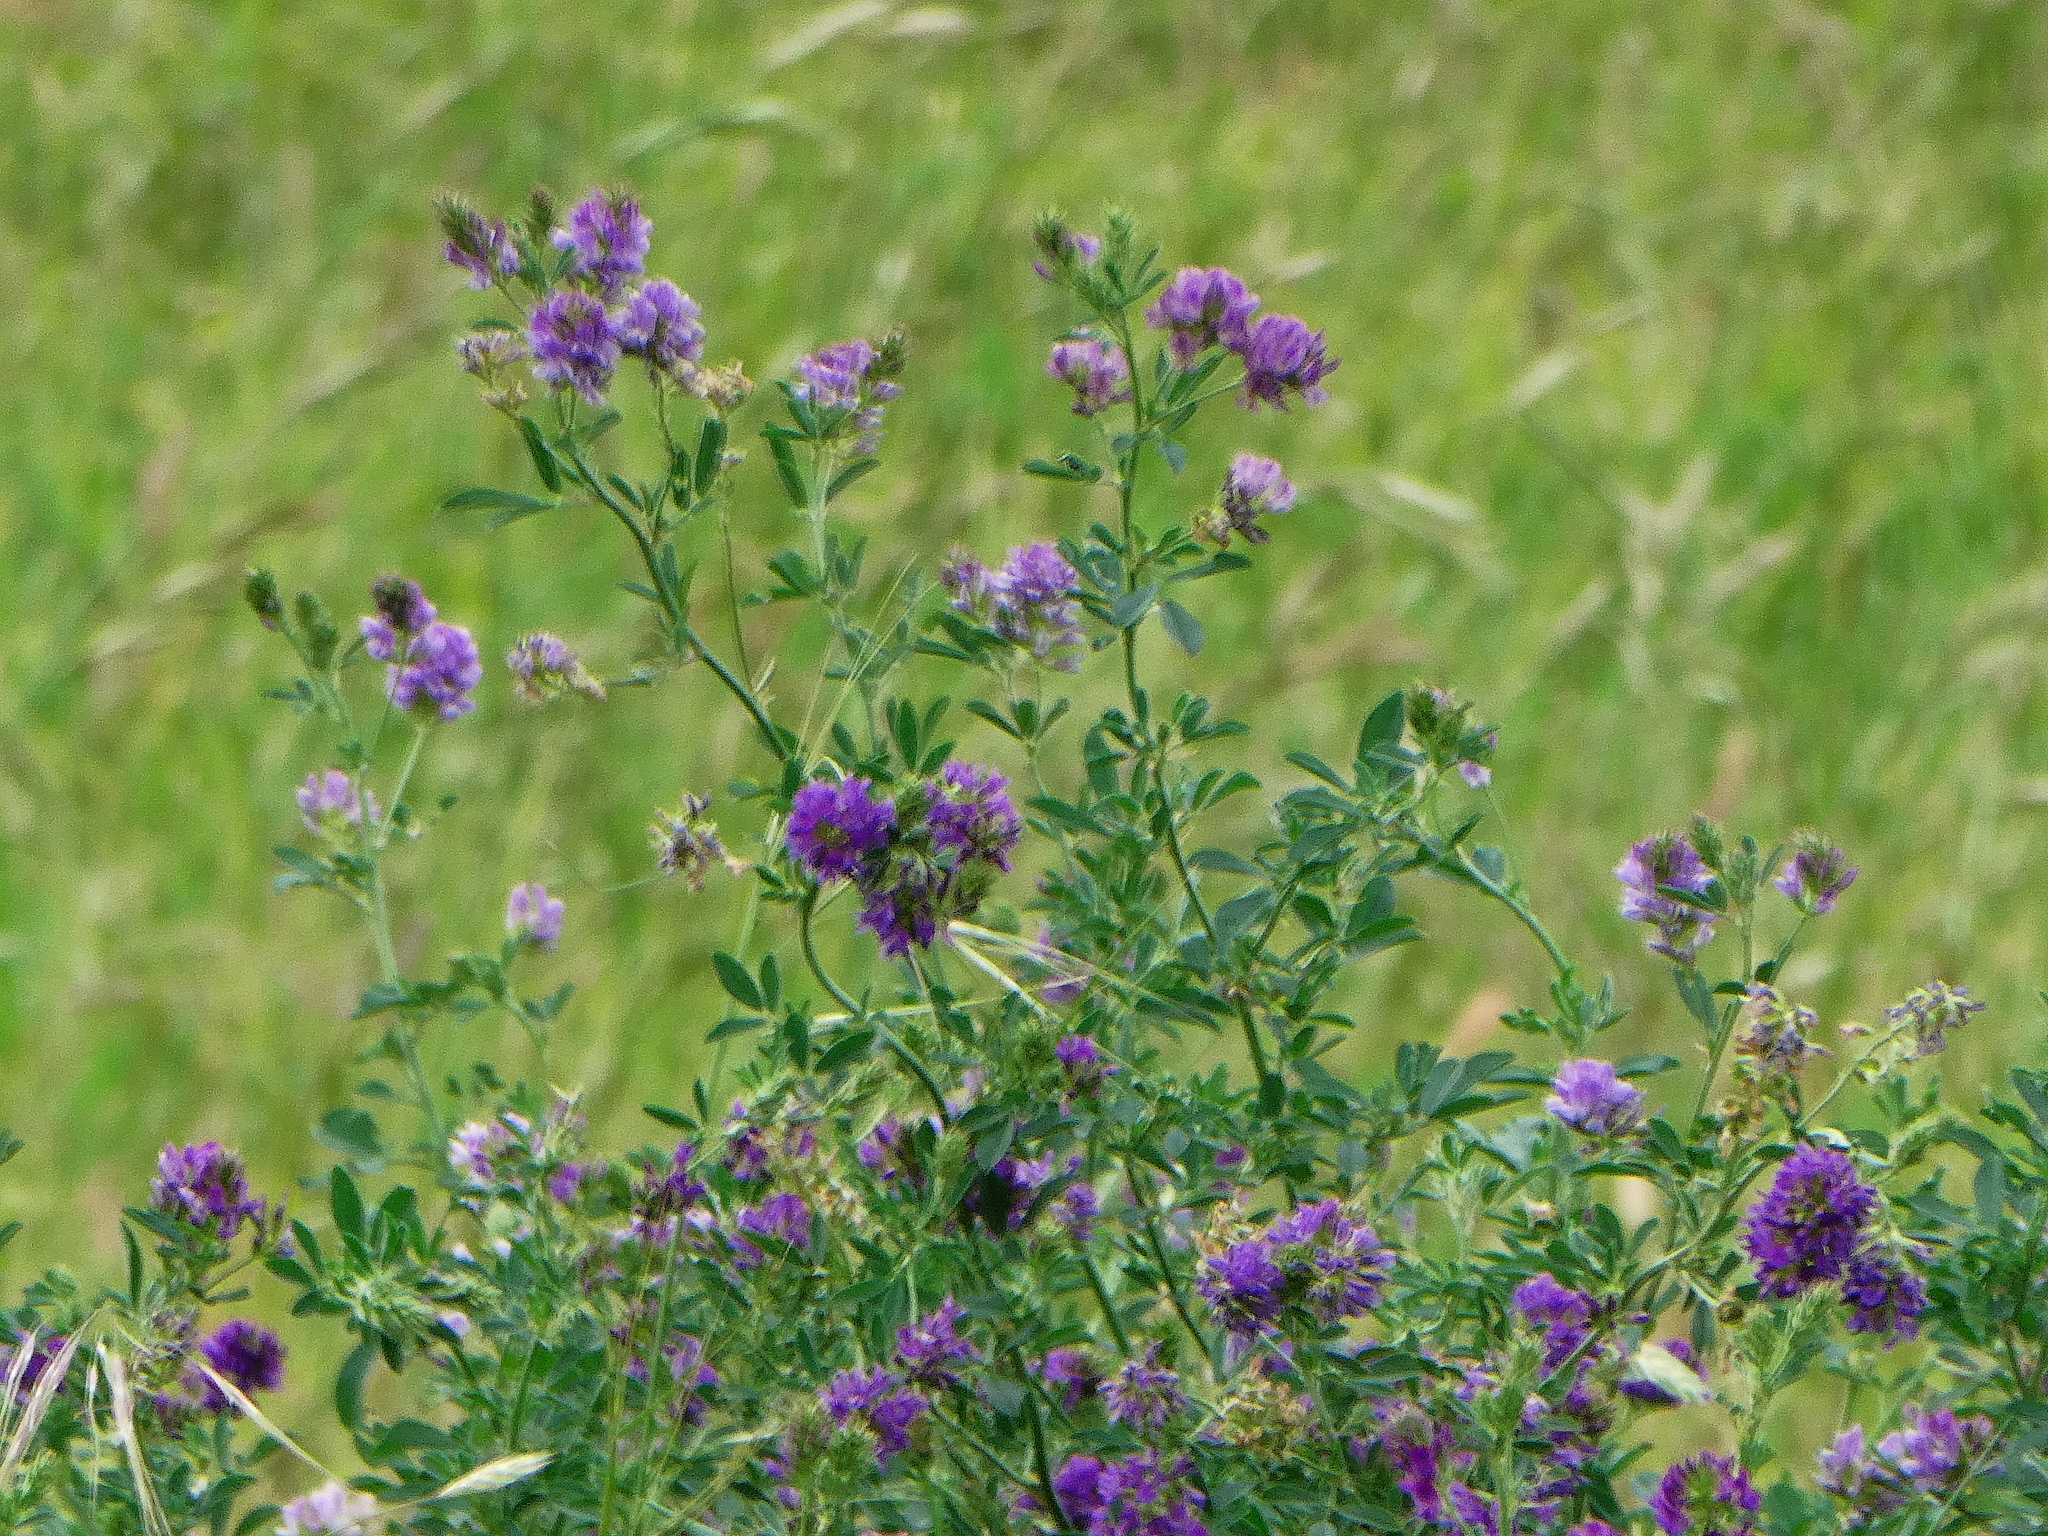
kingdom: Plantae
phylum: Tracheophyta
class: Magnoliopsida
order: Fabales
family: Fabaceae
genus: Medicago
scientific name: Medicago sativa
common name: Alfalfa
